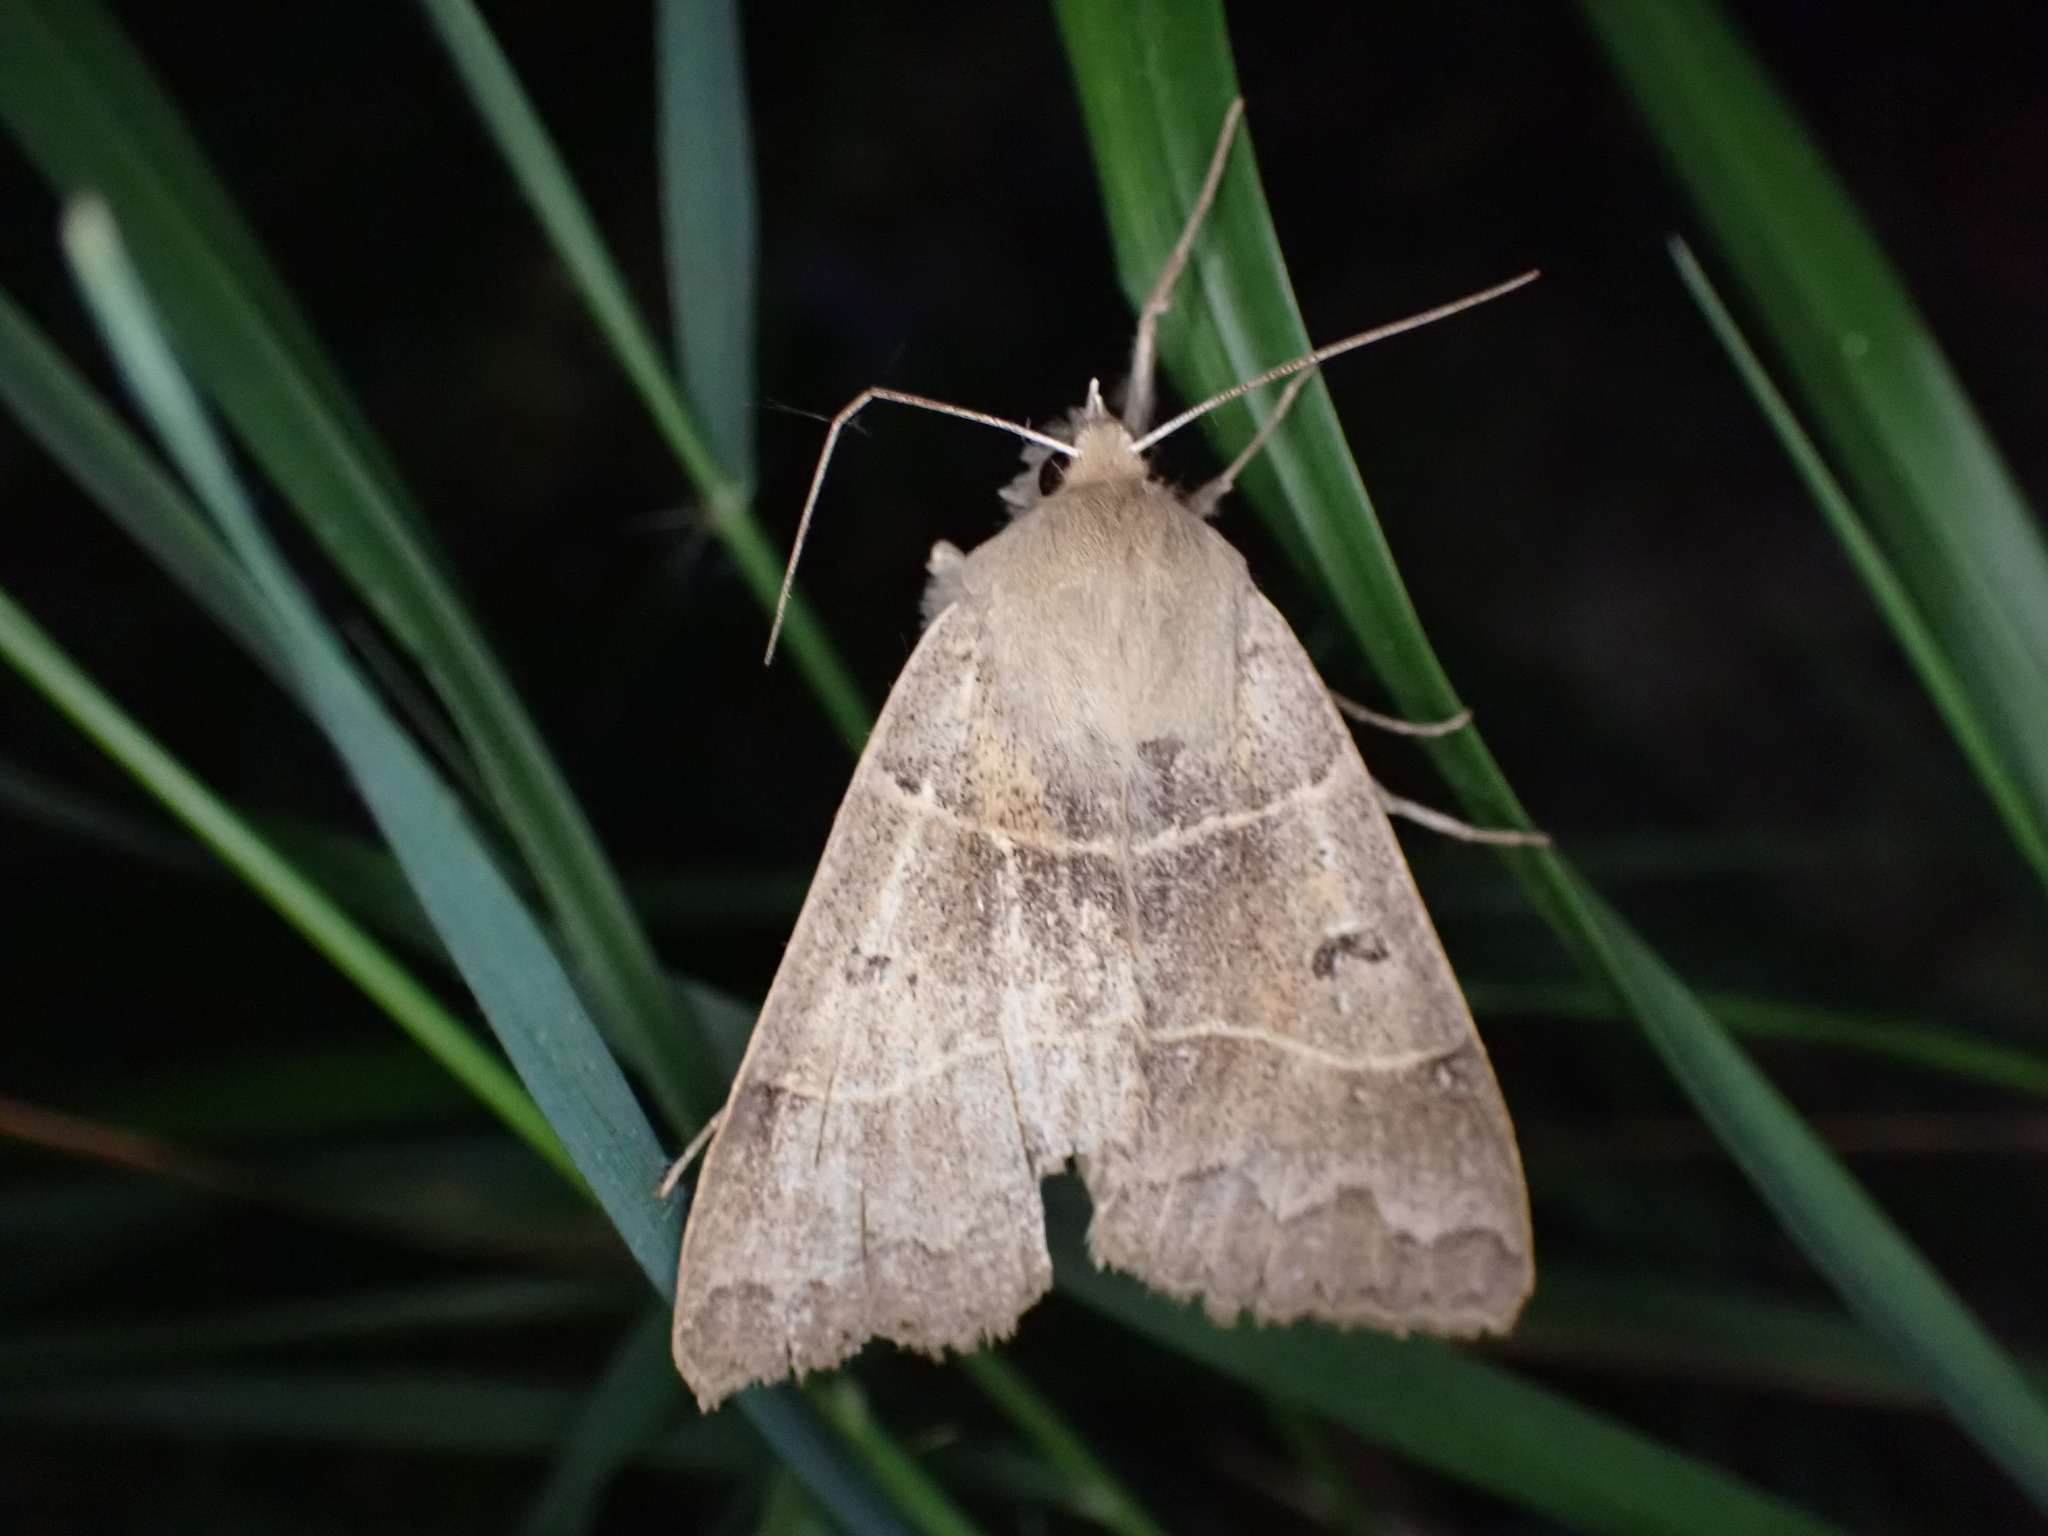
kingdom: Animalia
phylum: Arthropoda
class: Insecta
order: Lepidoptera
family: Erebidae
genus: Minucia
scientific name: Minucia lunaris
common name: Lunar double-stripe
